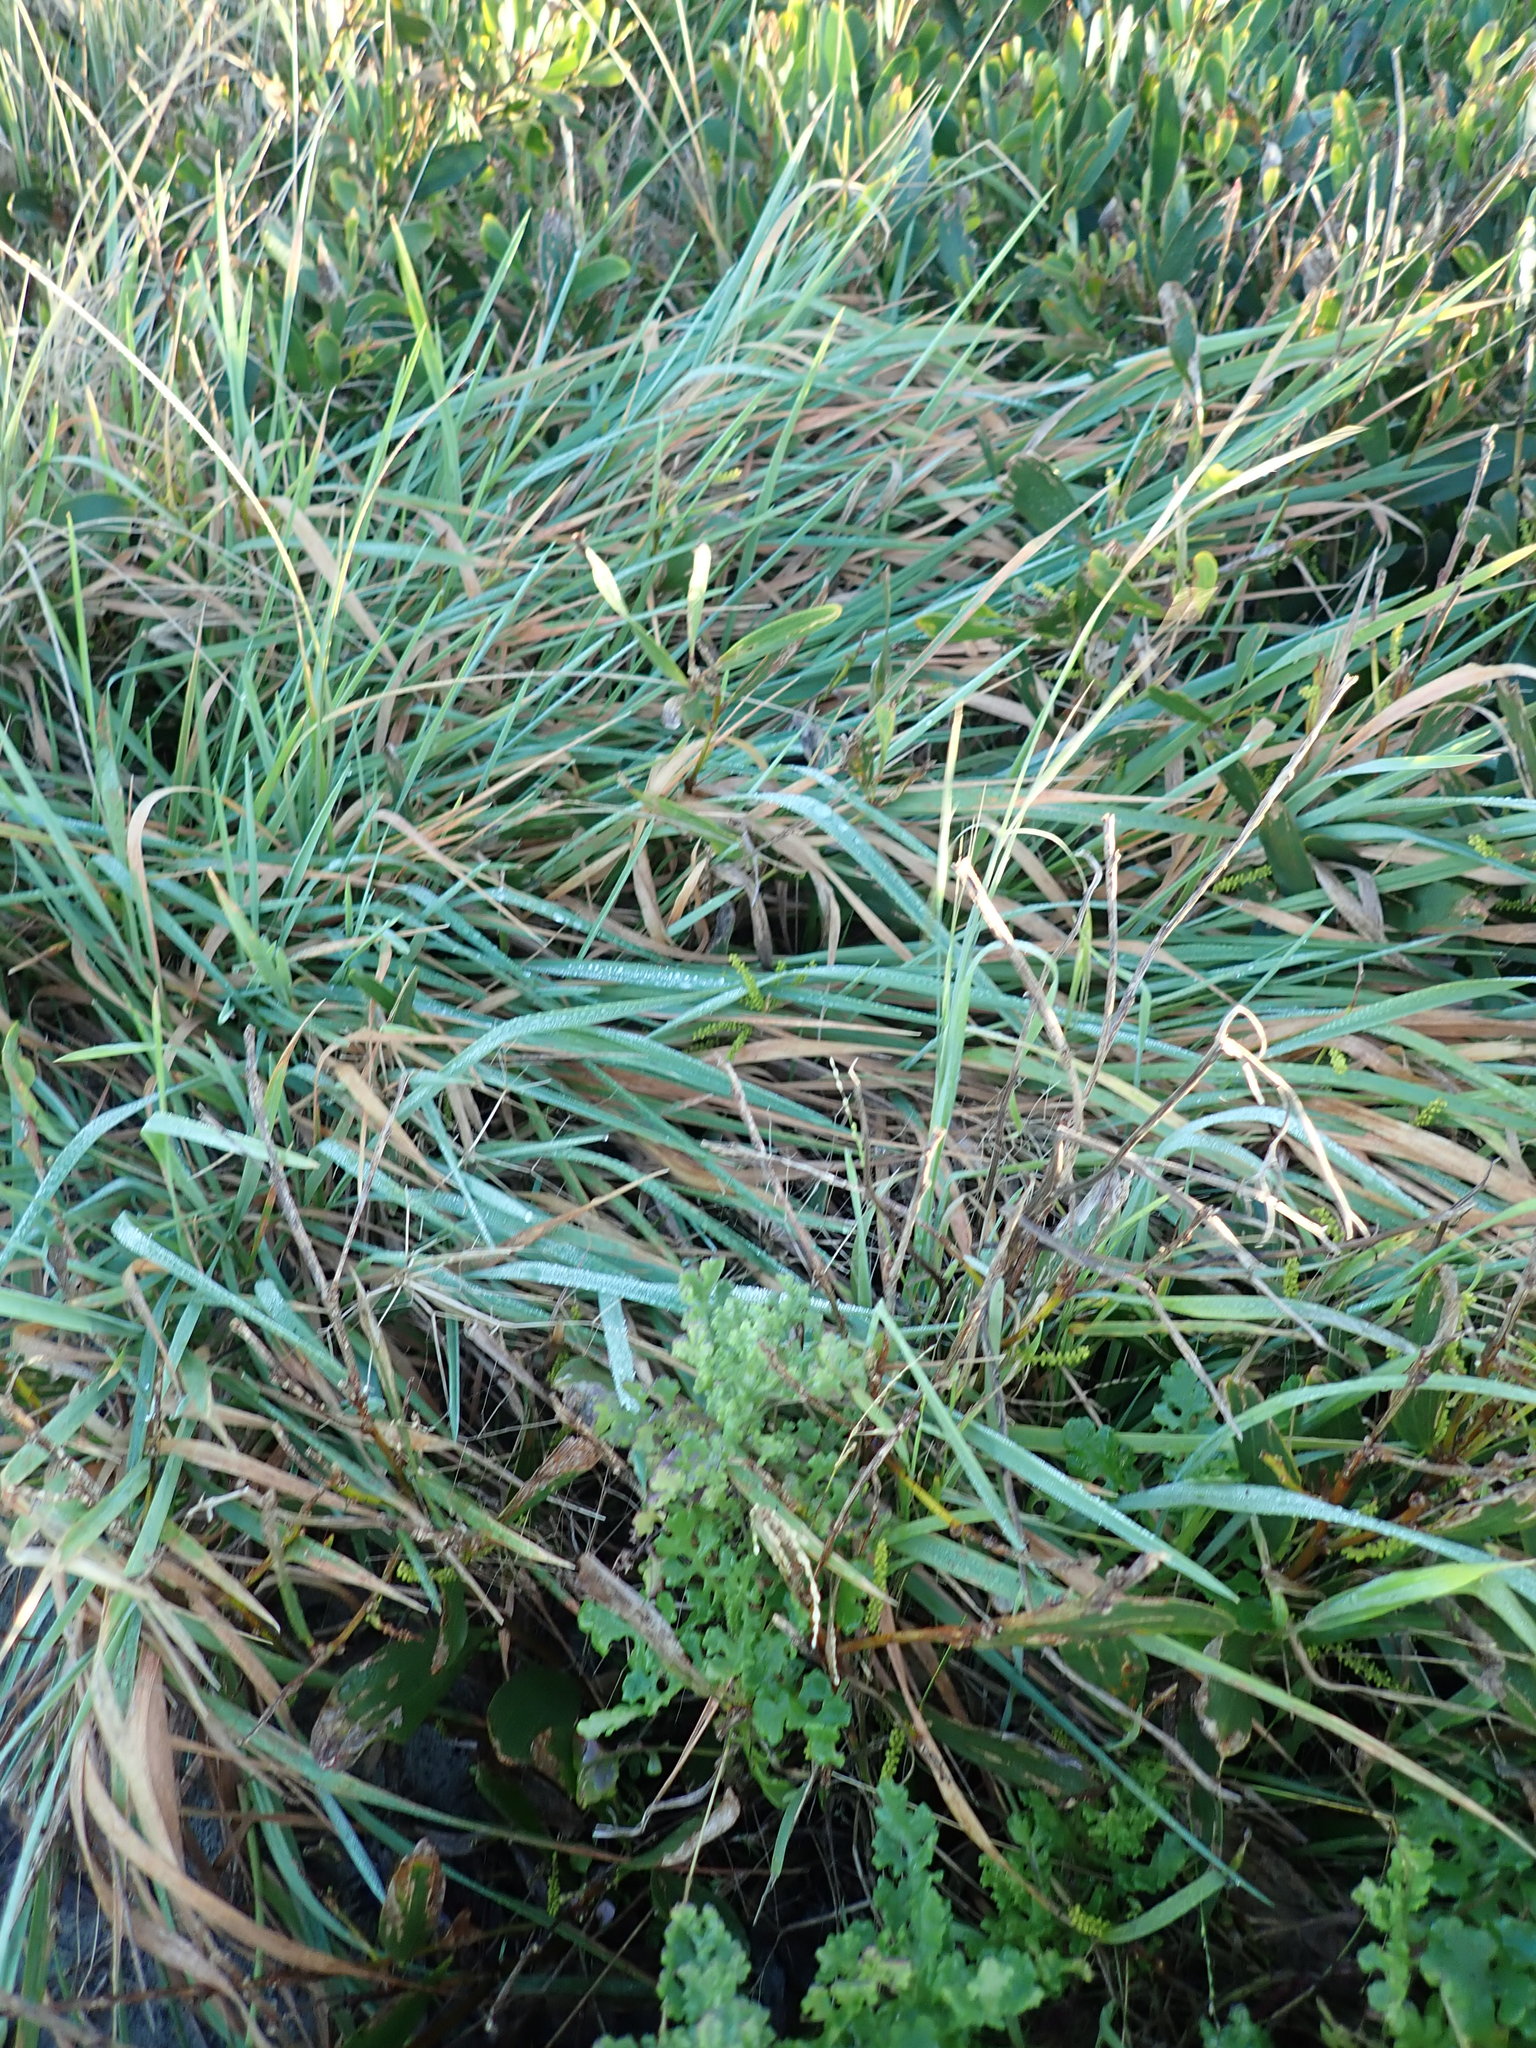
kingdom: Plantae
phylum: Tracheophyta
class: Liliopsida
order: Poales
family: Poaceae
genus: Lachnagrostis
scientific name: Lachnagrostis billardierei
